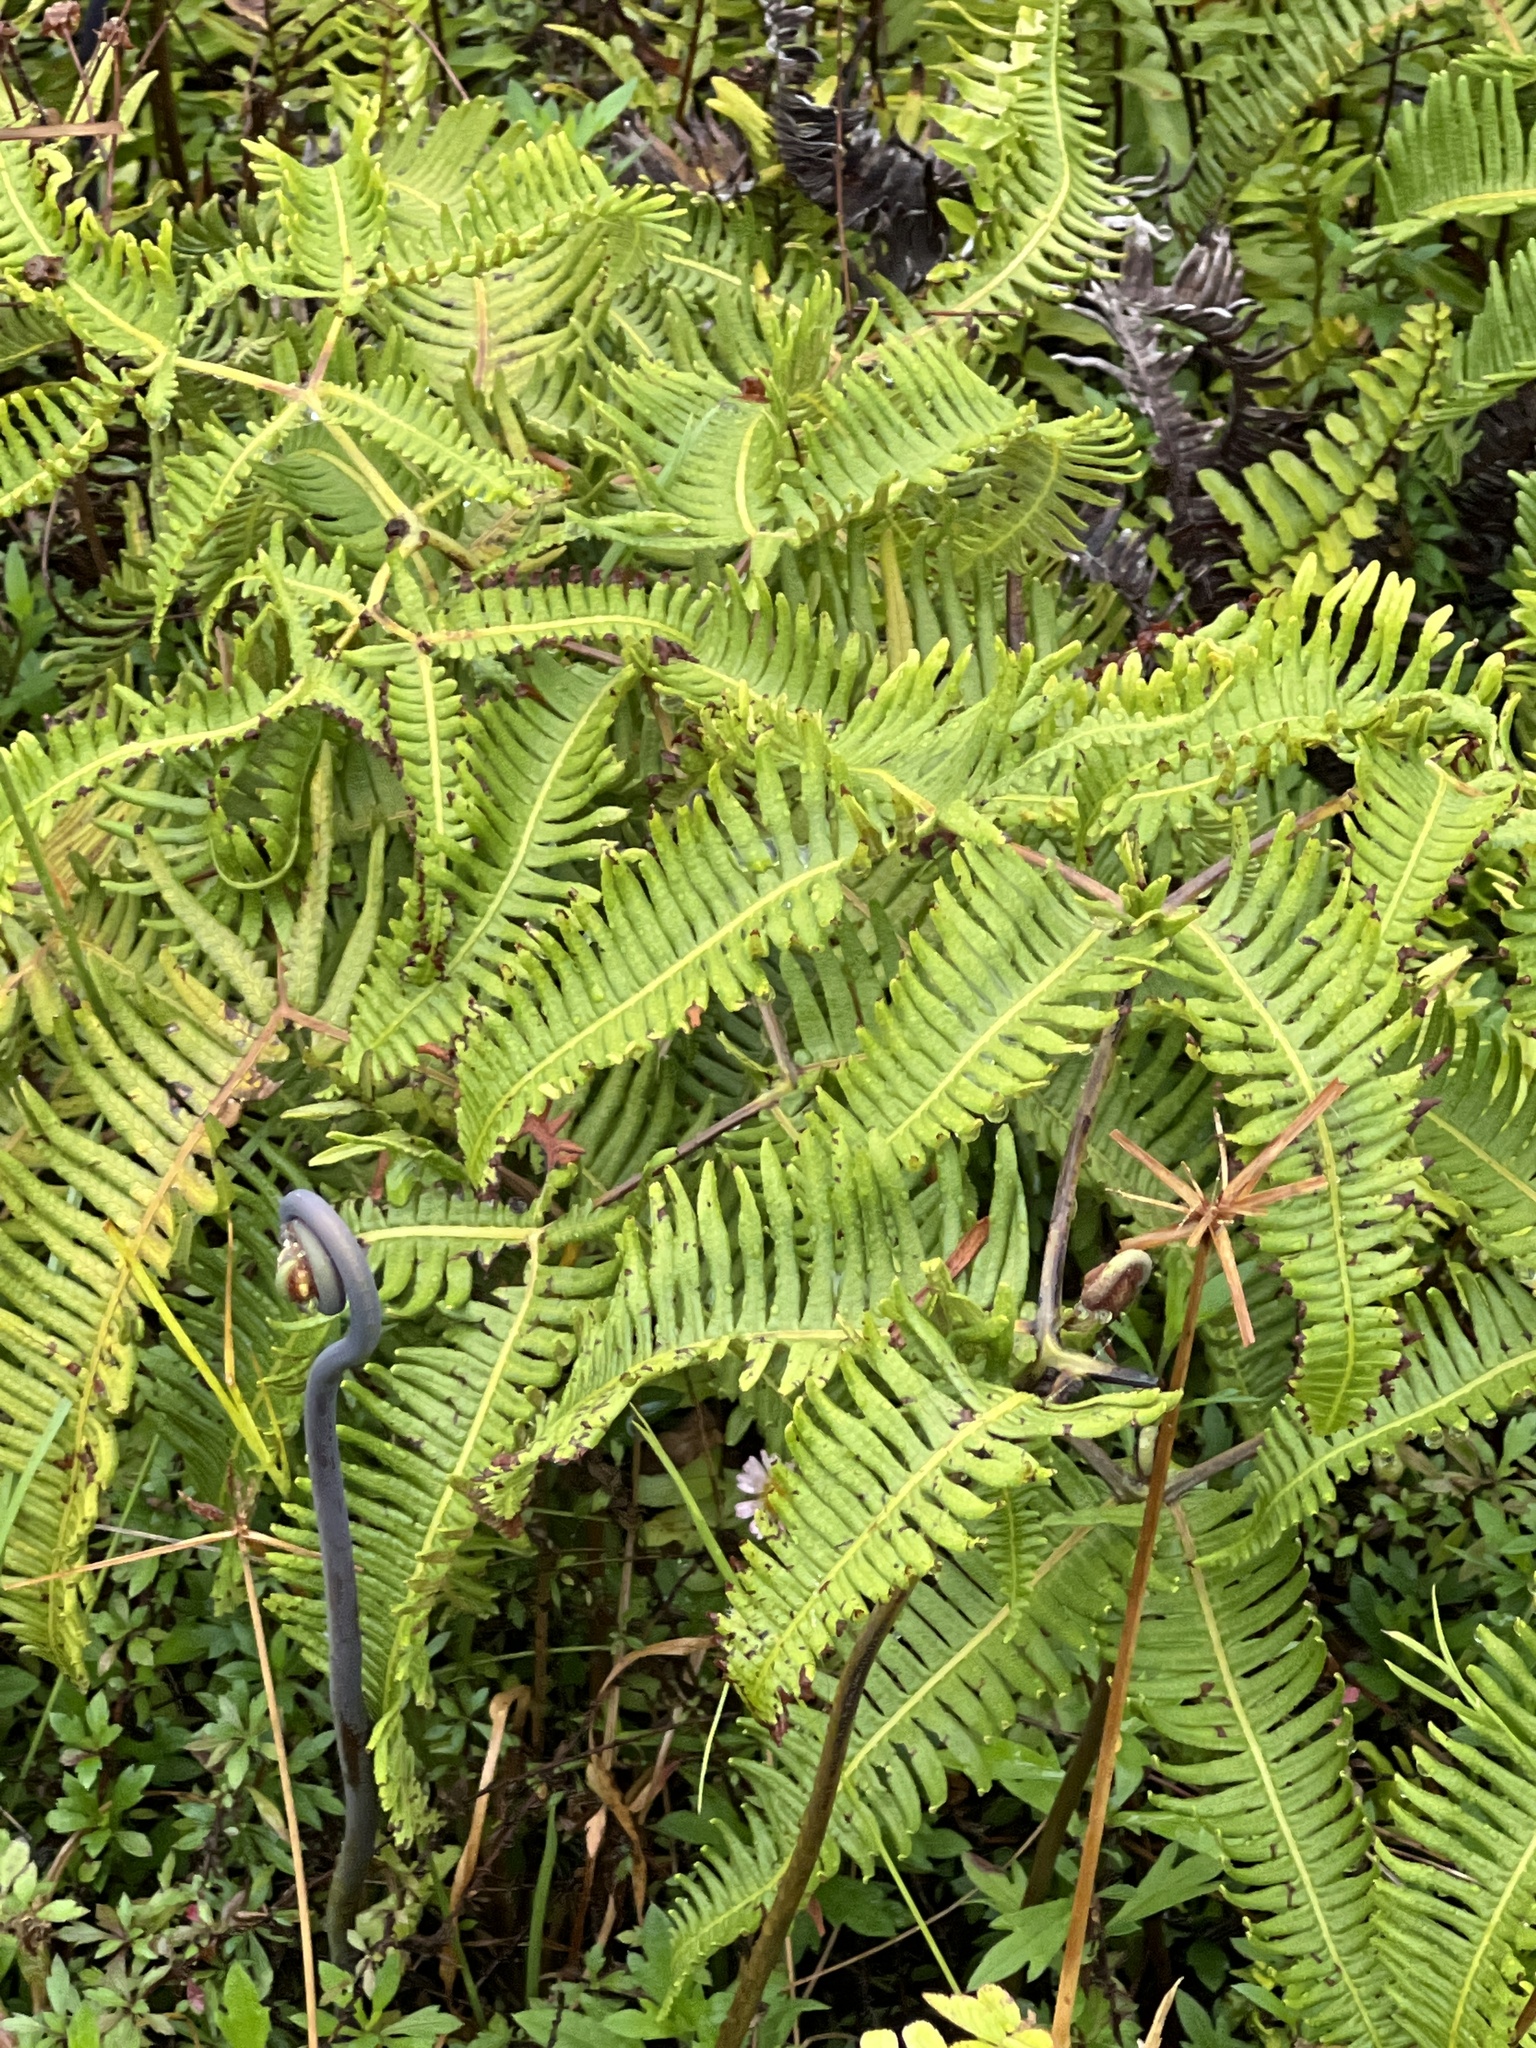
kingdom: Plantae
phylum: Tracheophyta
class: Polypodiopsida
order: Gleicheniales
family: Gleicheniaceae
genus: Dicranopteris
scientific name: Dicranopteris linearis
